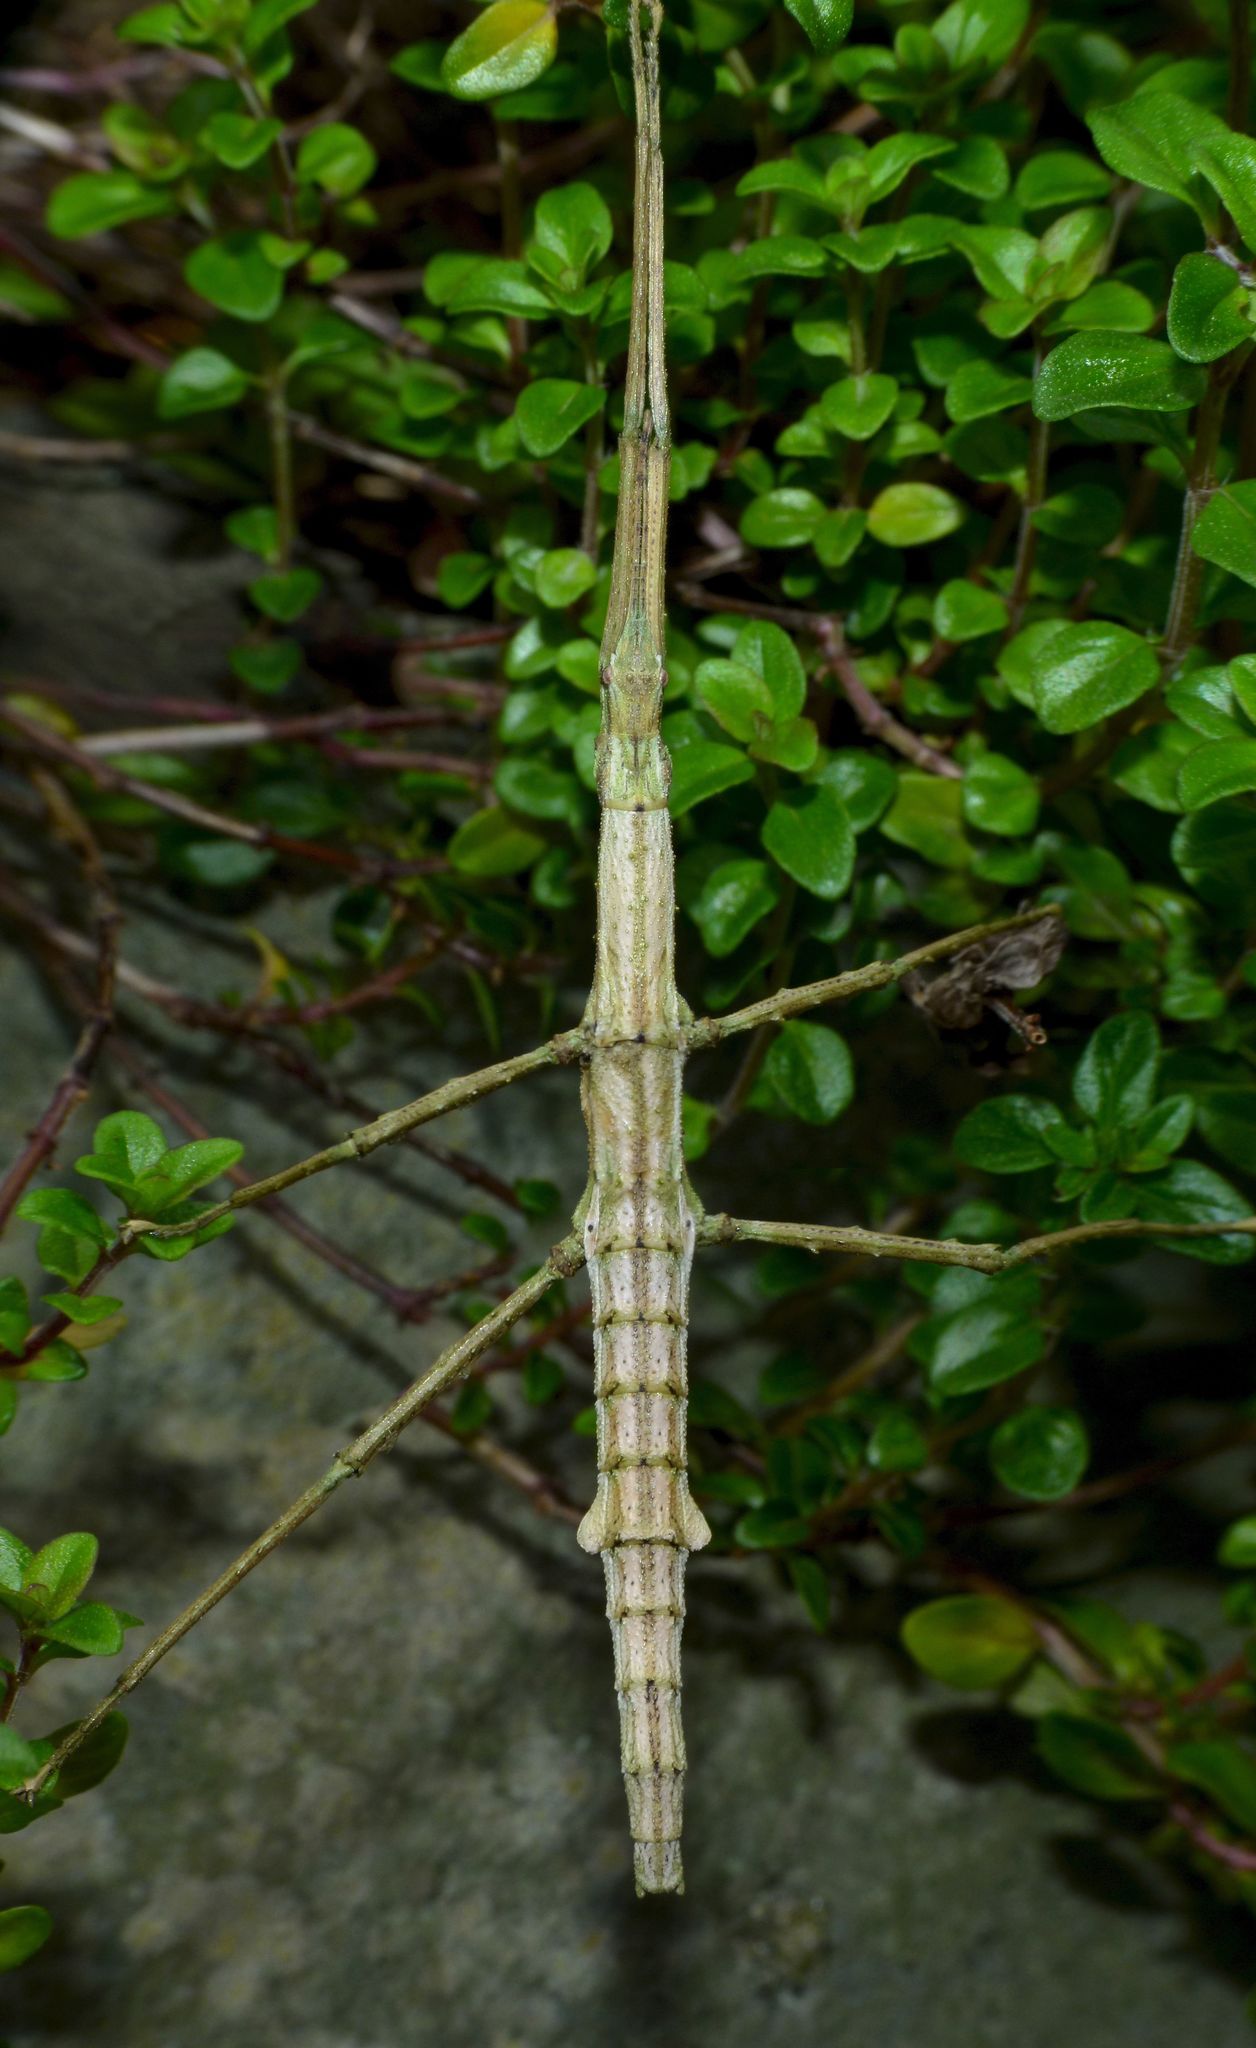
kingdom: Animalia
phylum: Arthropoda
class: Insecta
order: Phasmida
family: Phasmatidae
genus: Niveaphasma
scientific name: Niveaphasma annulatum
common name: Hutton's stick insect
